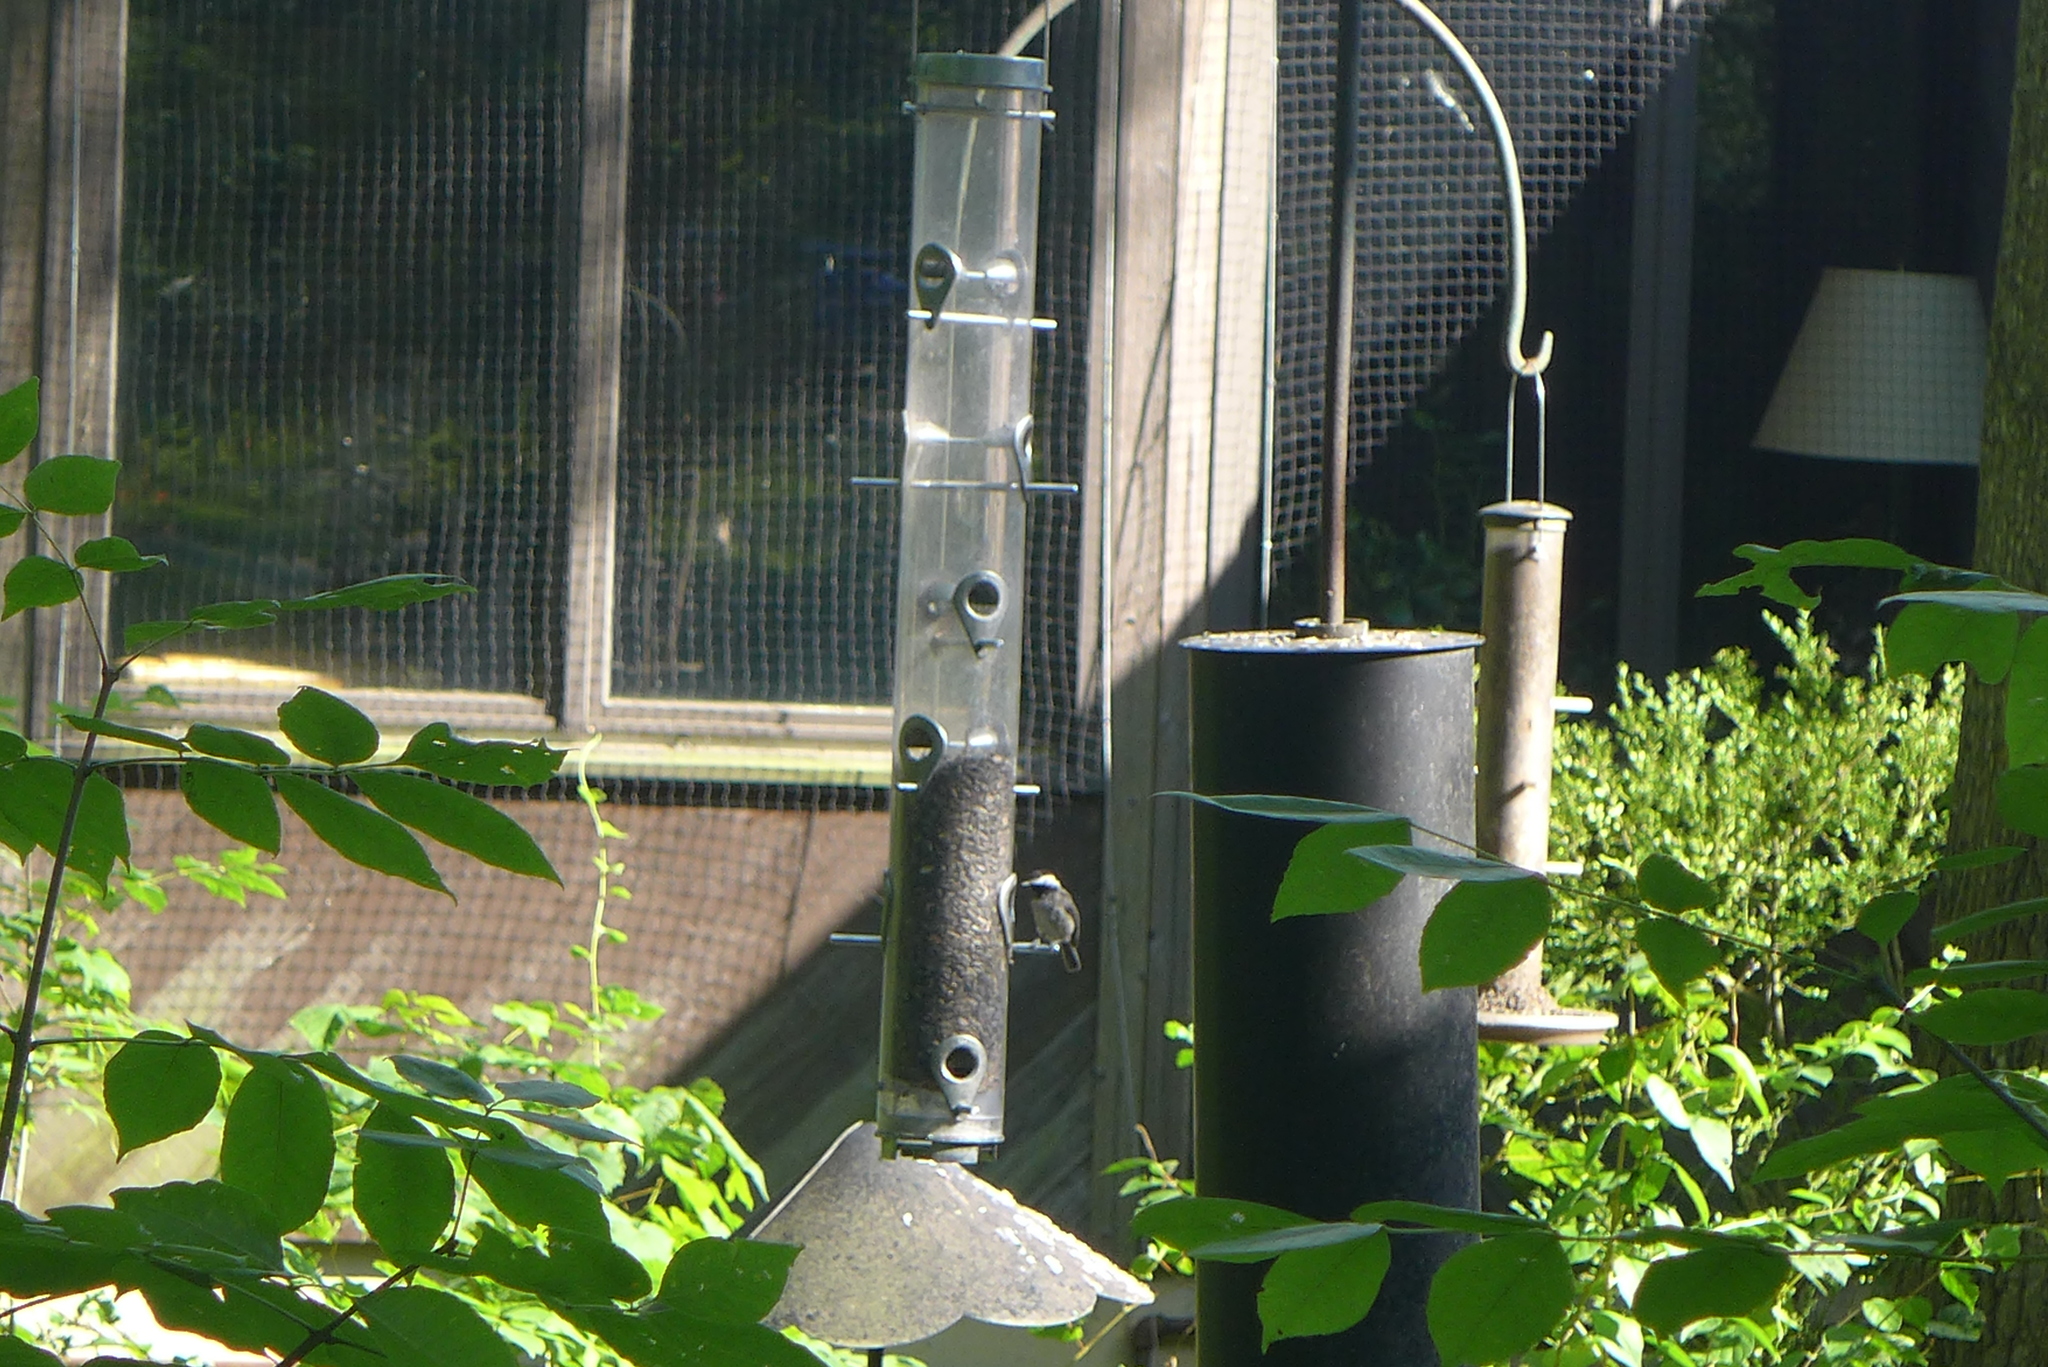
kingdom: Animalia
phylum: Chordata
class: Aves
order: Passeriformes
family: Paridae
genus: Poecile
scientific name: Poecile carolinensis
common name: Carolina chickadee
